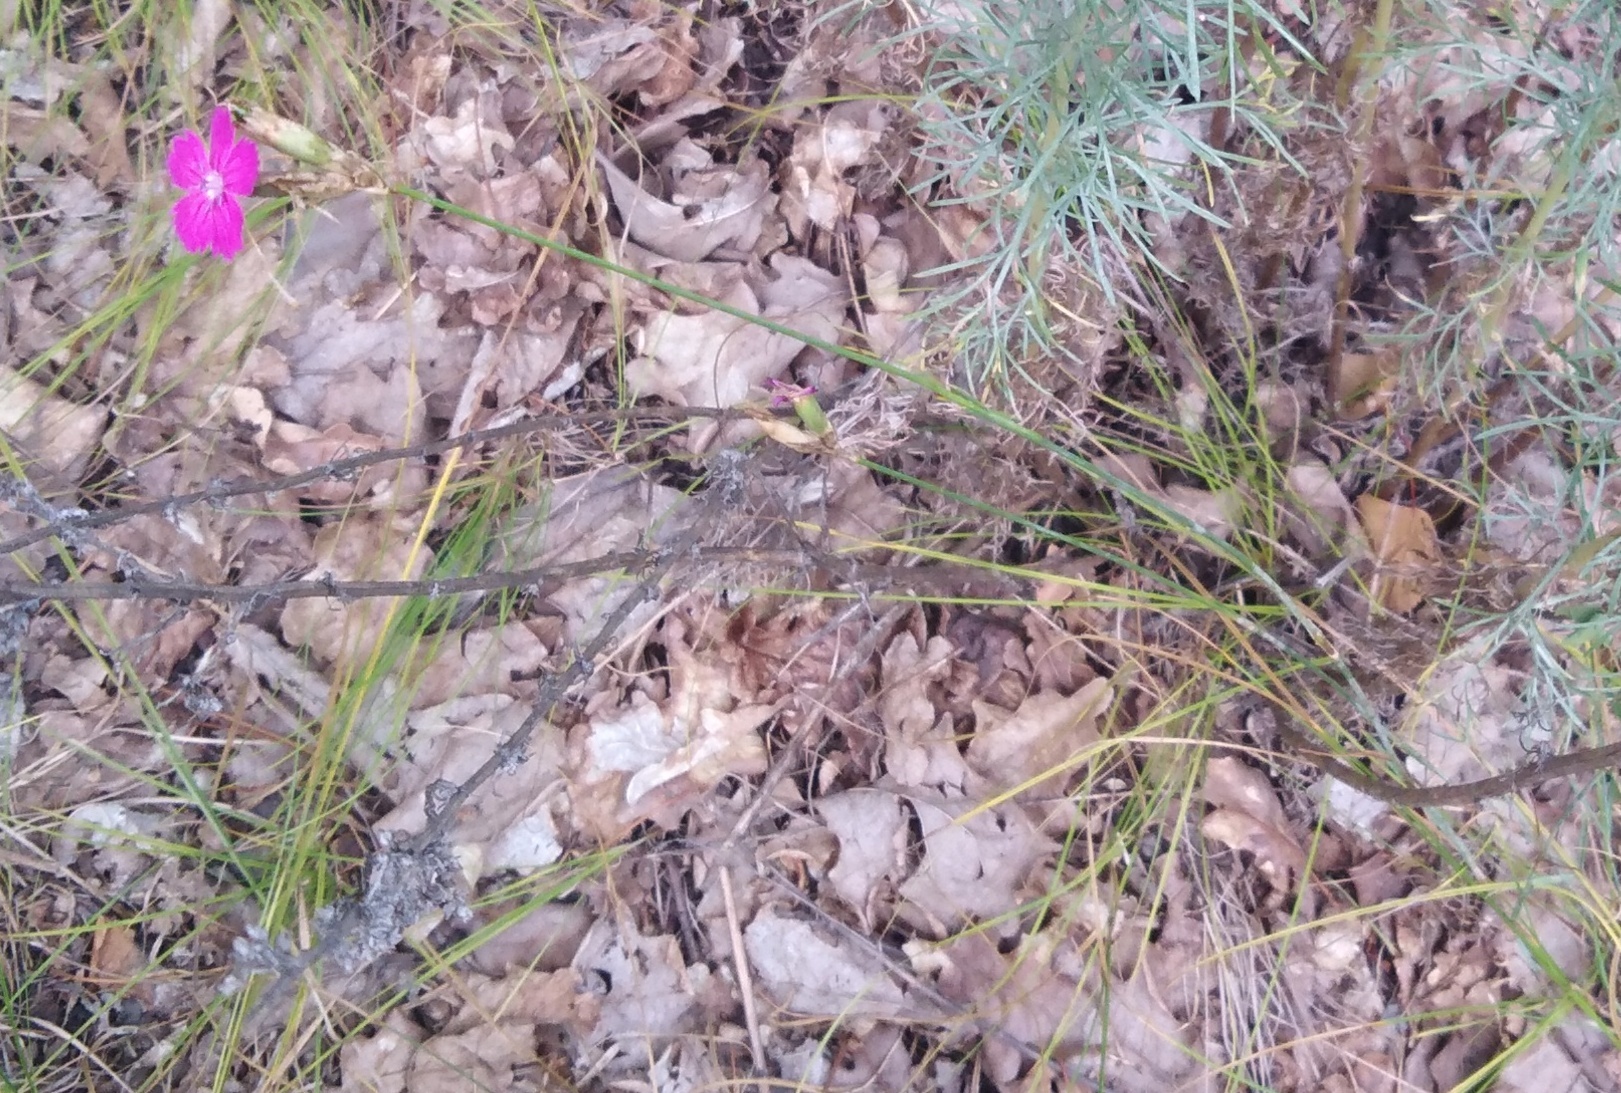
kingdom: Plantae
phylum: Tracheophyta
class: Magnoliopsida
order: Caryophyllales
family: Caryophyllaceae
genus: Dianthus
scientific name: Dianthus borbasii
